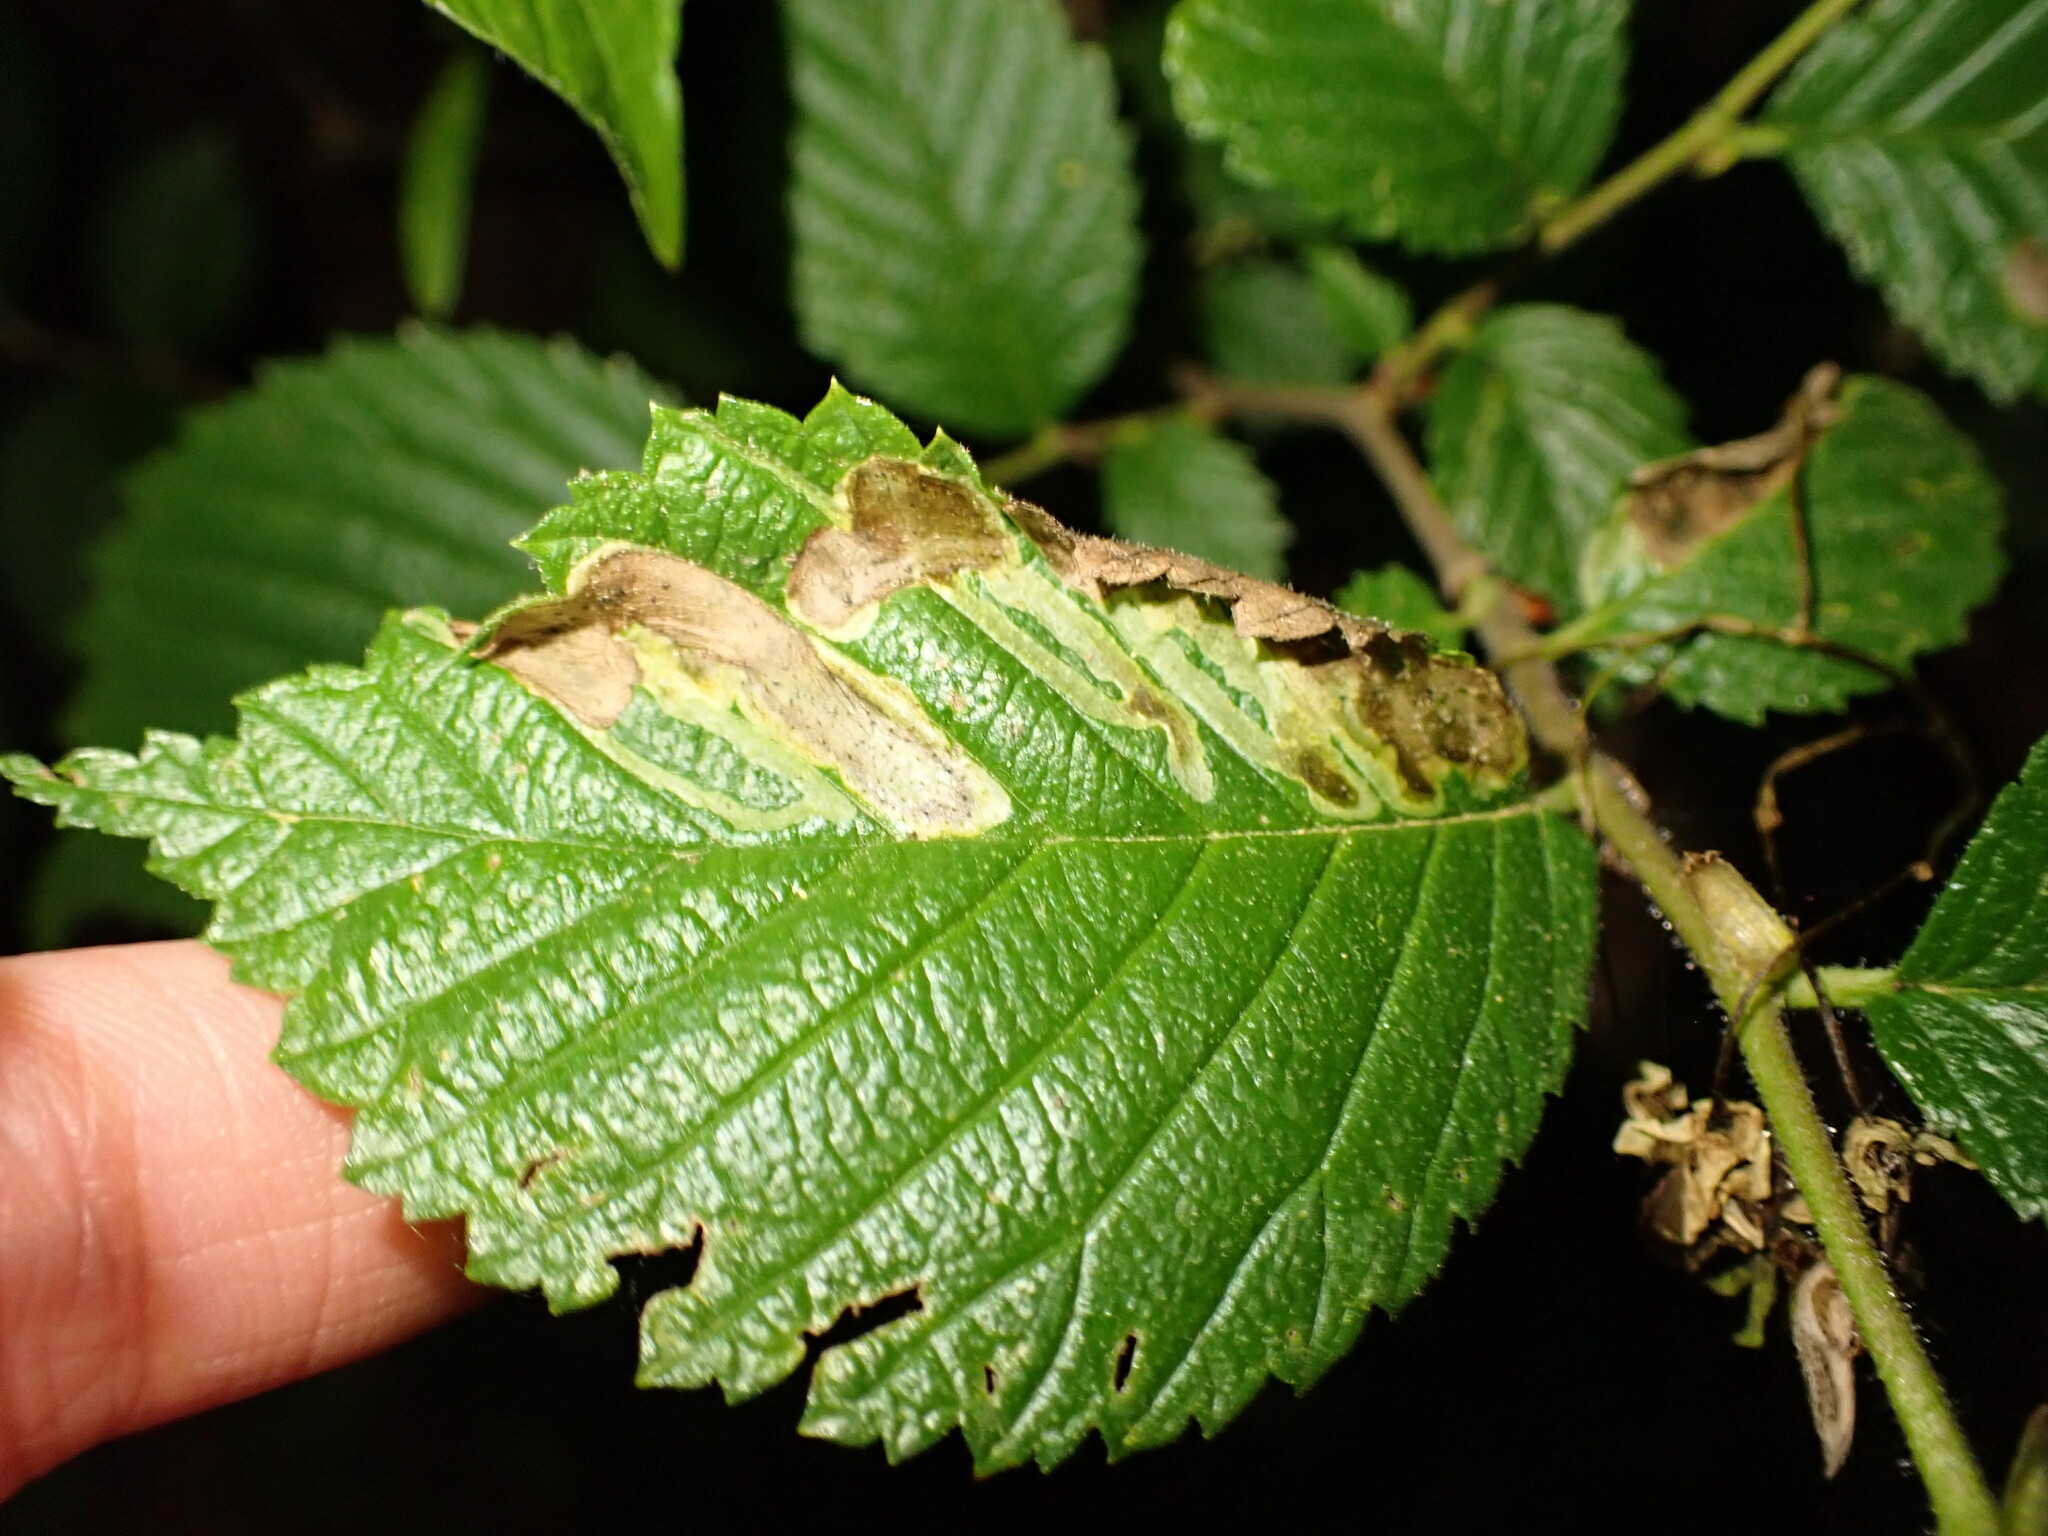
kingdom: Animalia
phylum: Arthropoda
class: Insecta
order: Diptera
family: Agromyzidae
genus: Agromyza
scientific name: Agromyza aristata
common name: Elm agromyzid leafminer
